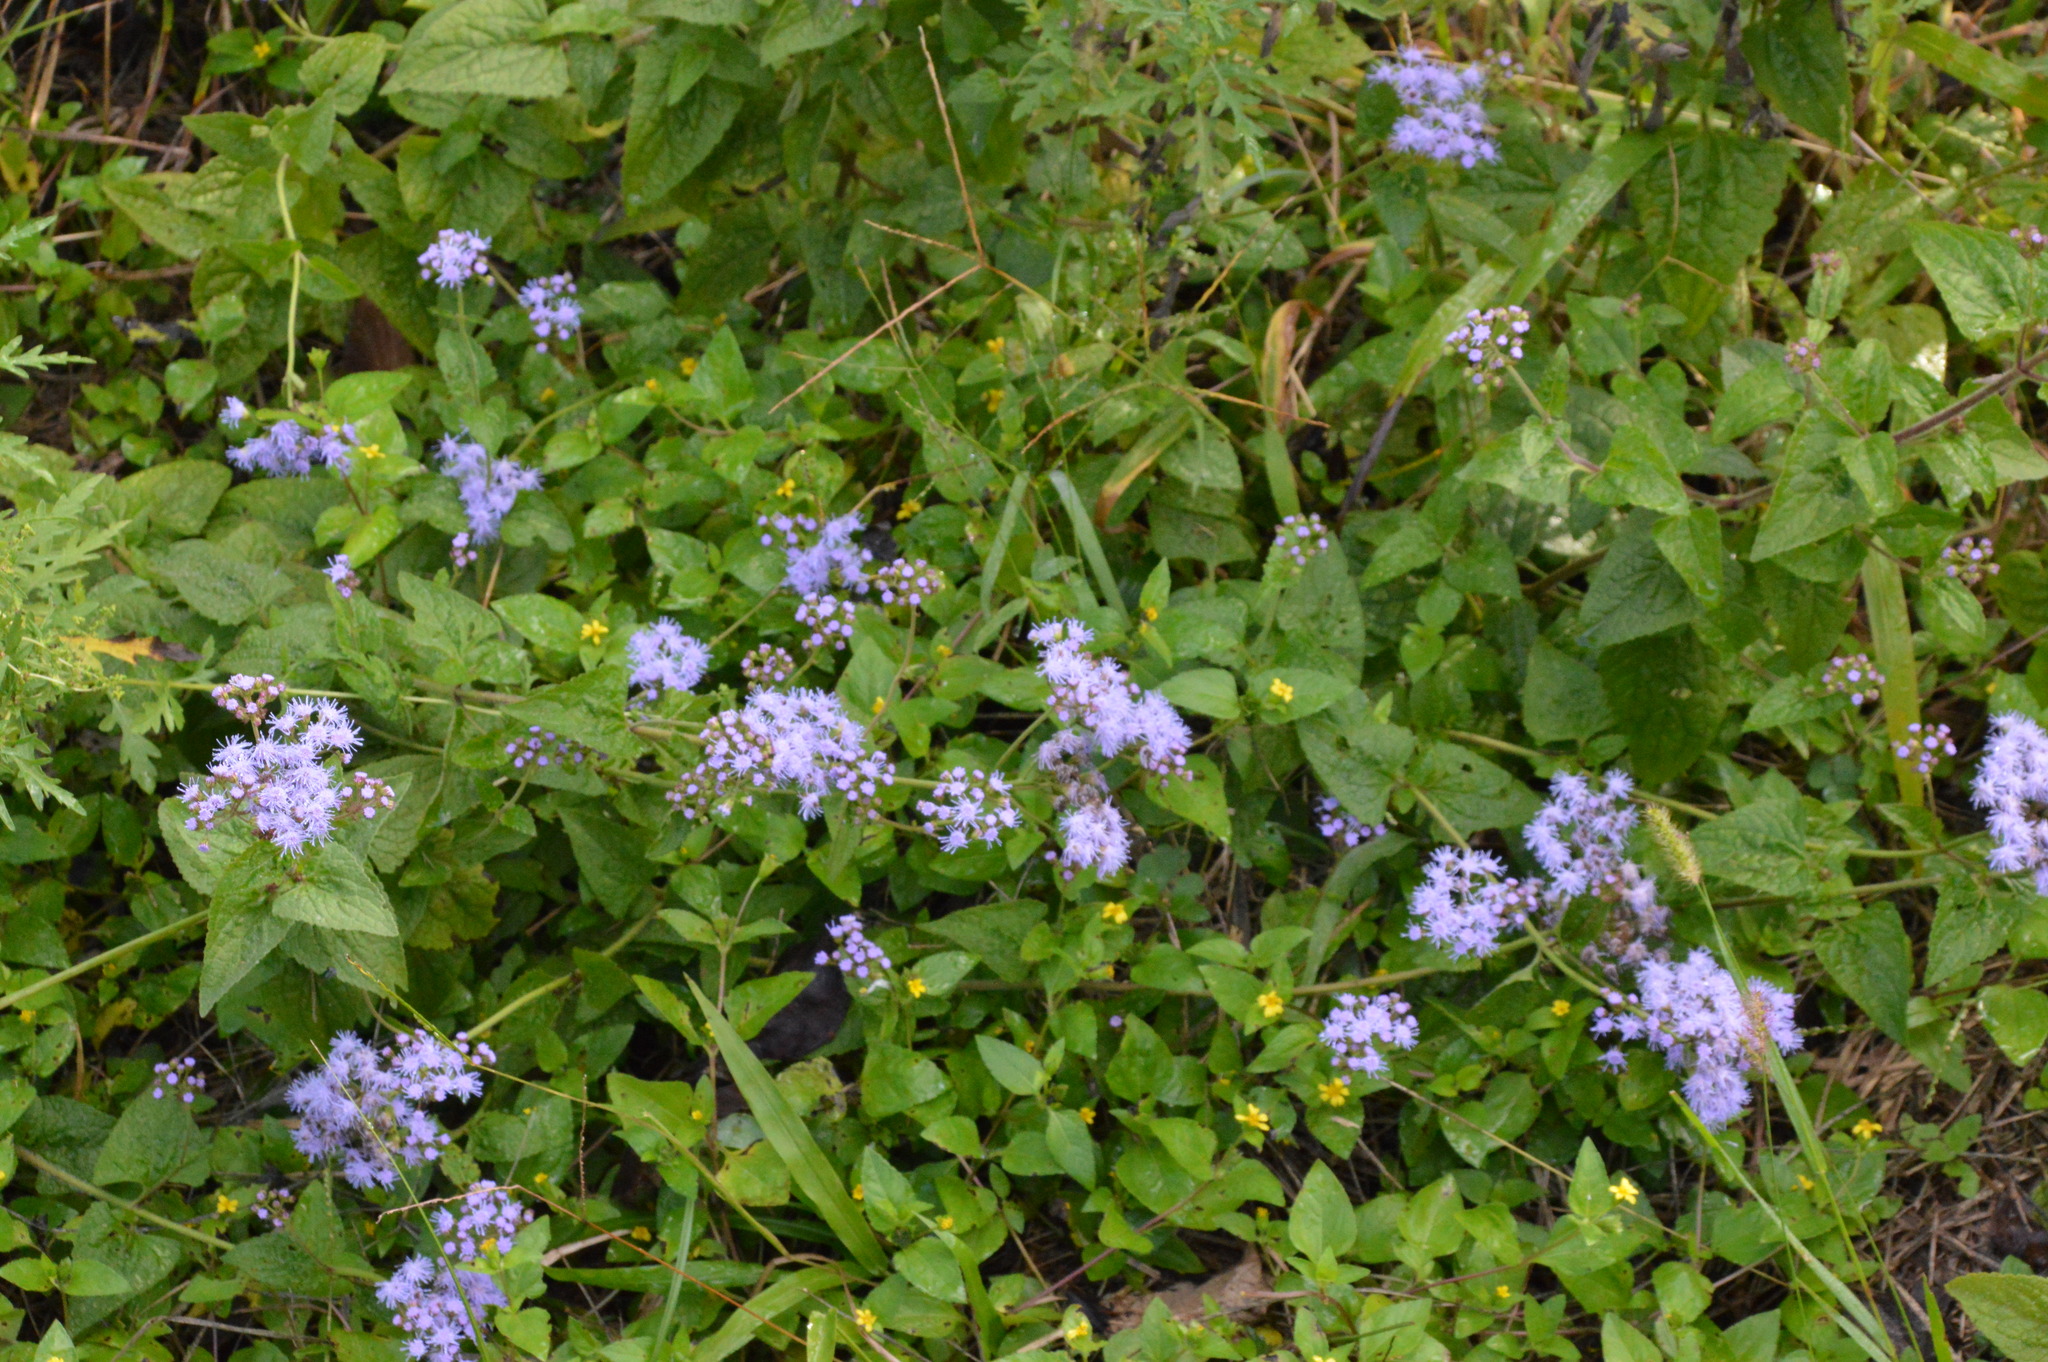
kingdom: Plantae
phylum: Tracheophyta
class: Magnoliopsida
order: Asterales
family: Asteraceae
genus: Conoclinium
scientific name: Conoclinium coelestinum
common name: Blue mistflower
